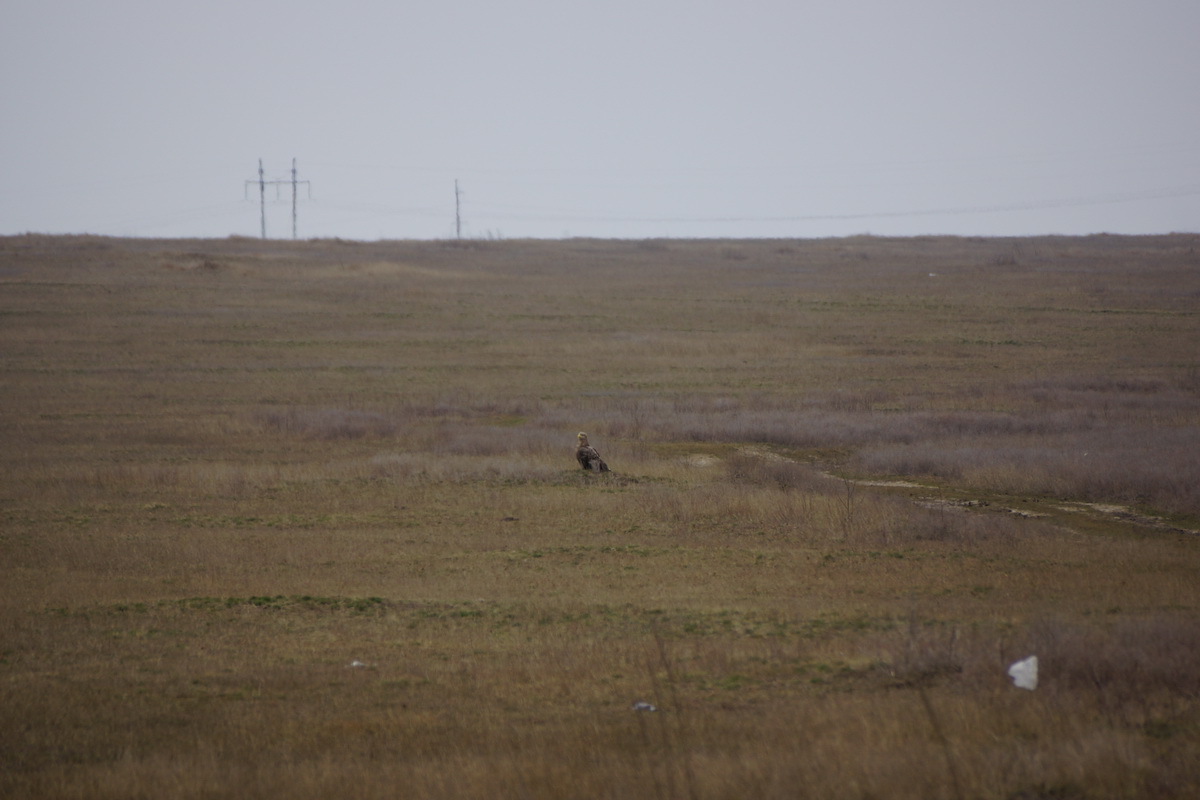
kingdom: Animalia
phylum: Chordata
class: Aves
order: Accipitriformes
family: Accipitridae
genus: Haliaeetus
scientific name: Haliaeetus albicilla
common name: White-tailed eagle
